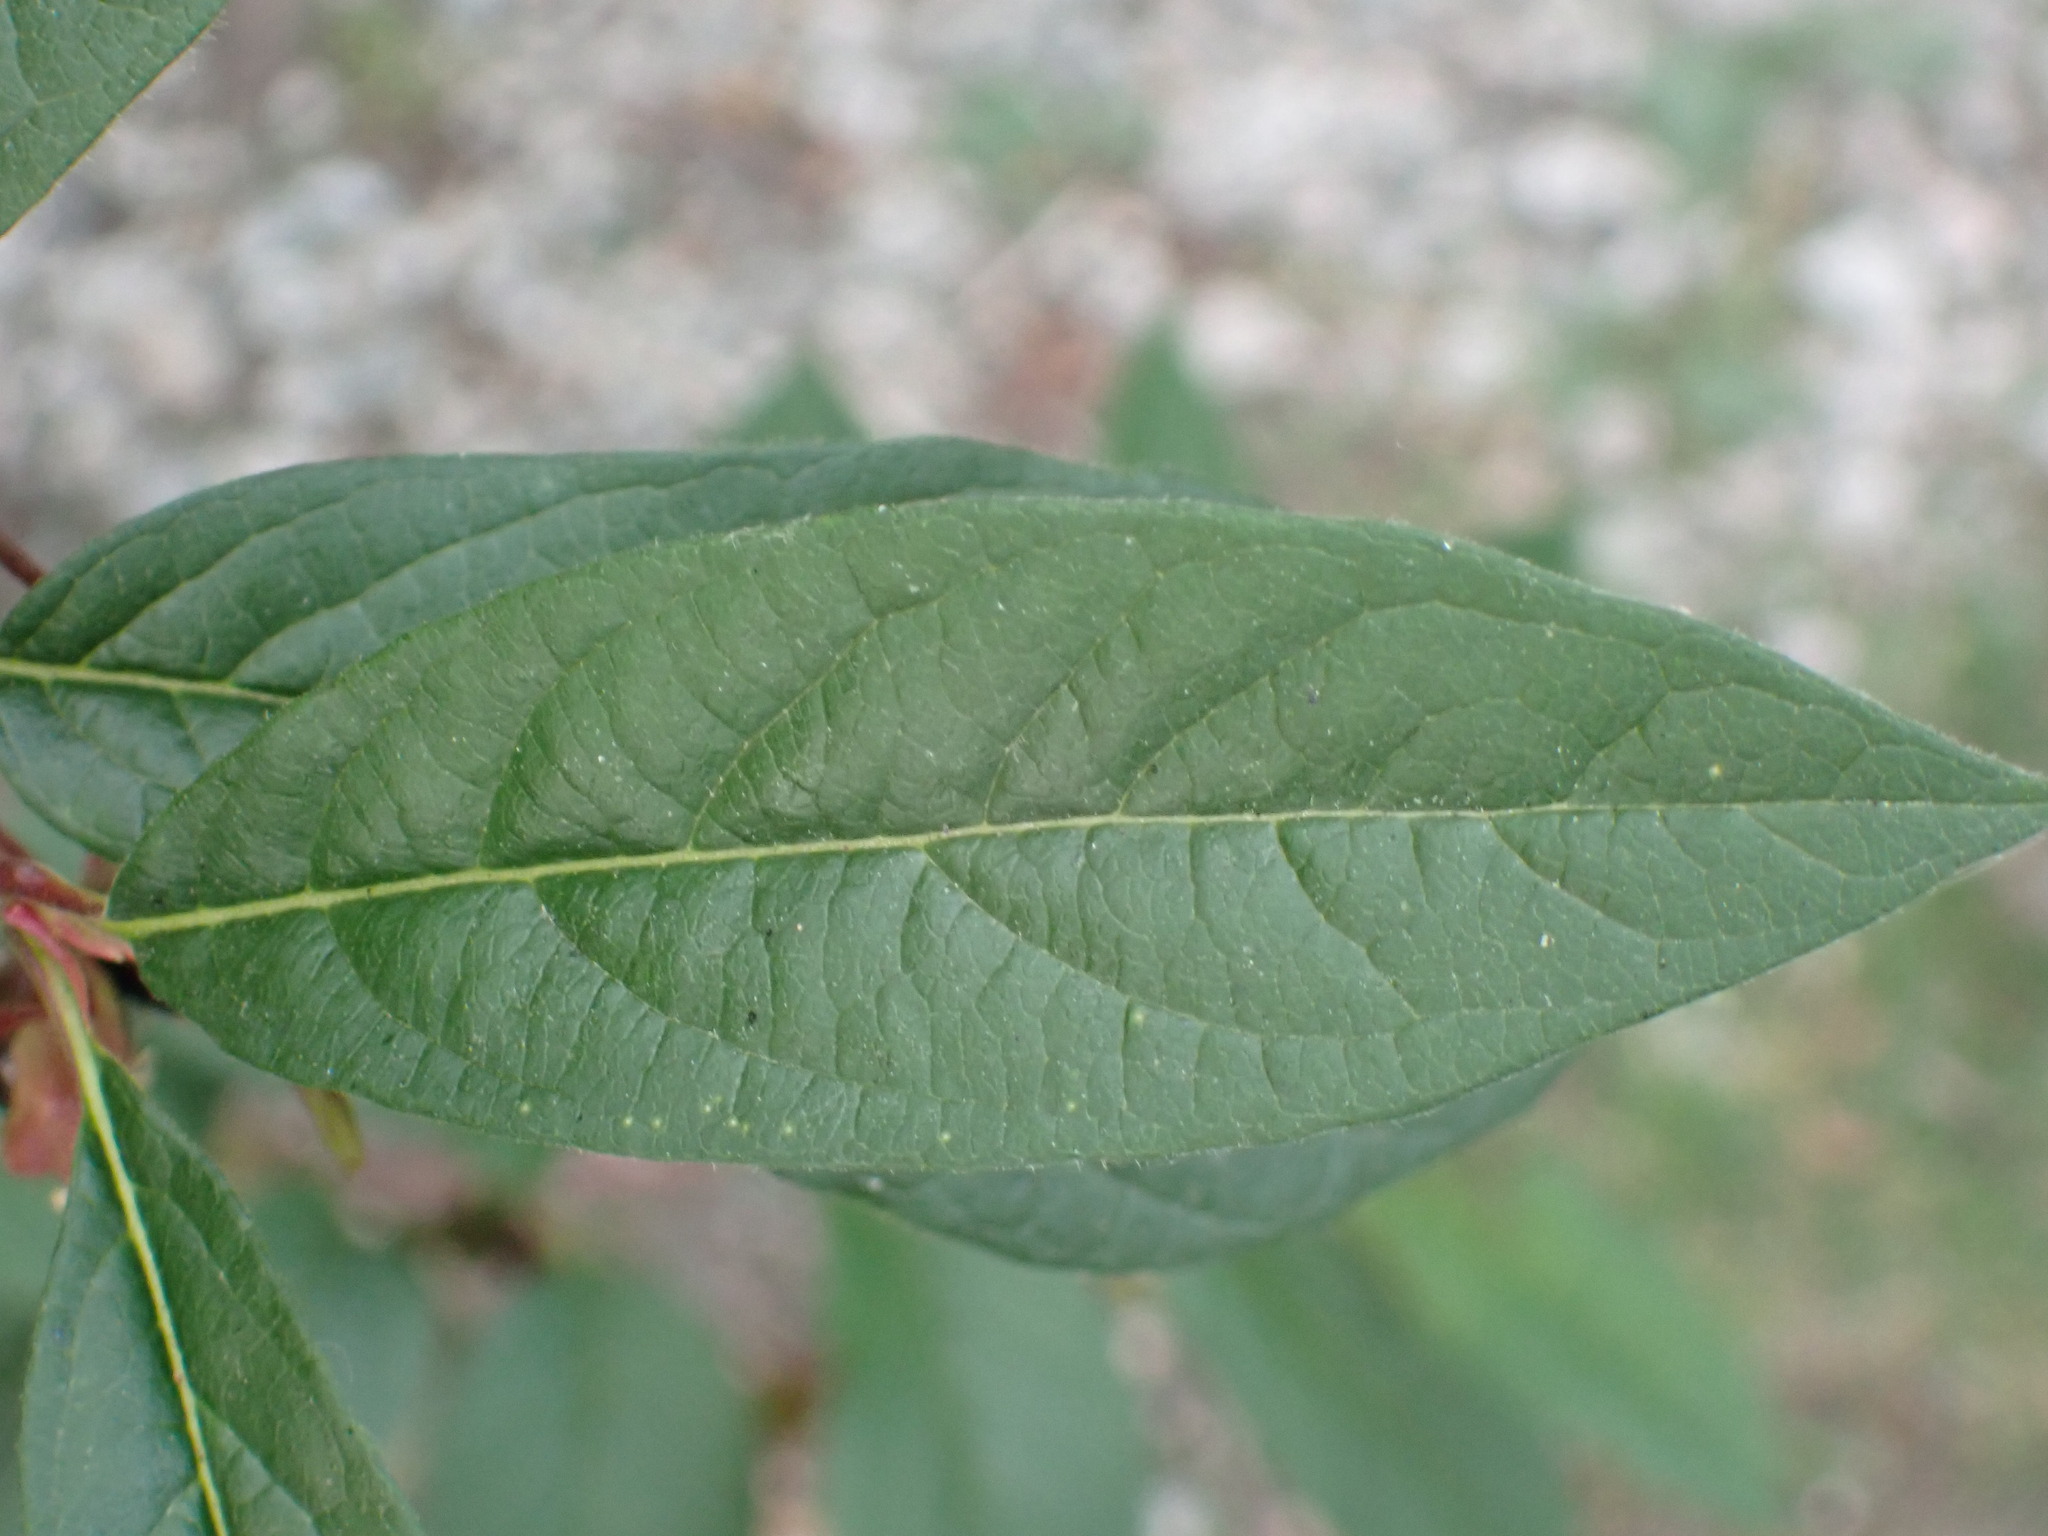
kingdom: Plantae
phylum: Tracheophyta
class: Magnoliopsida
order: Dipsacales
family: Caprifoliaceae
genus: Lonicera
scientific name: Lonicera involucrata
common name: Californian honeysuckle
